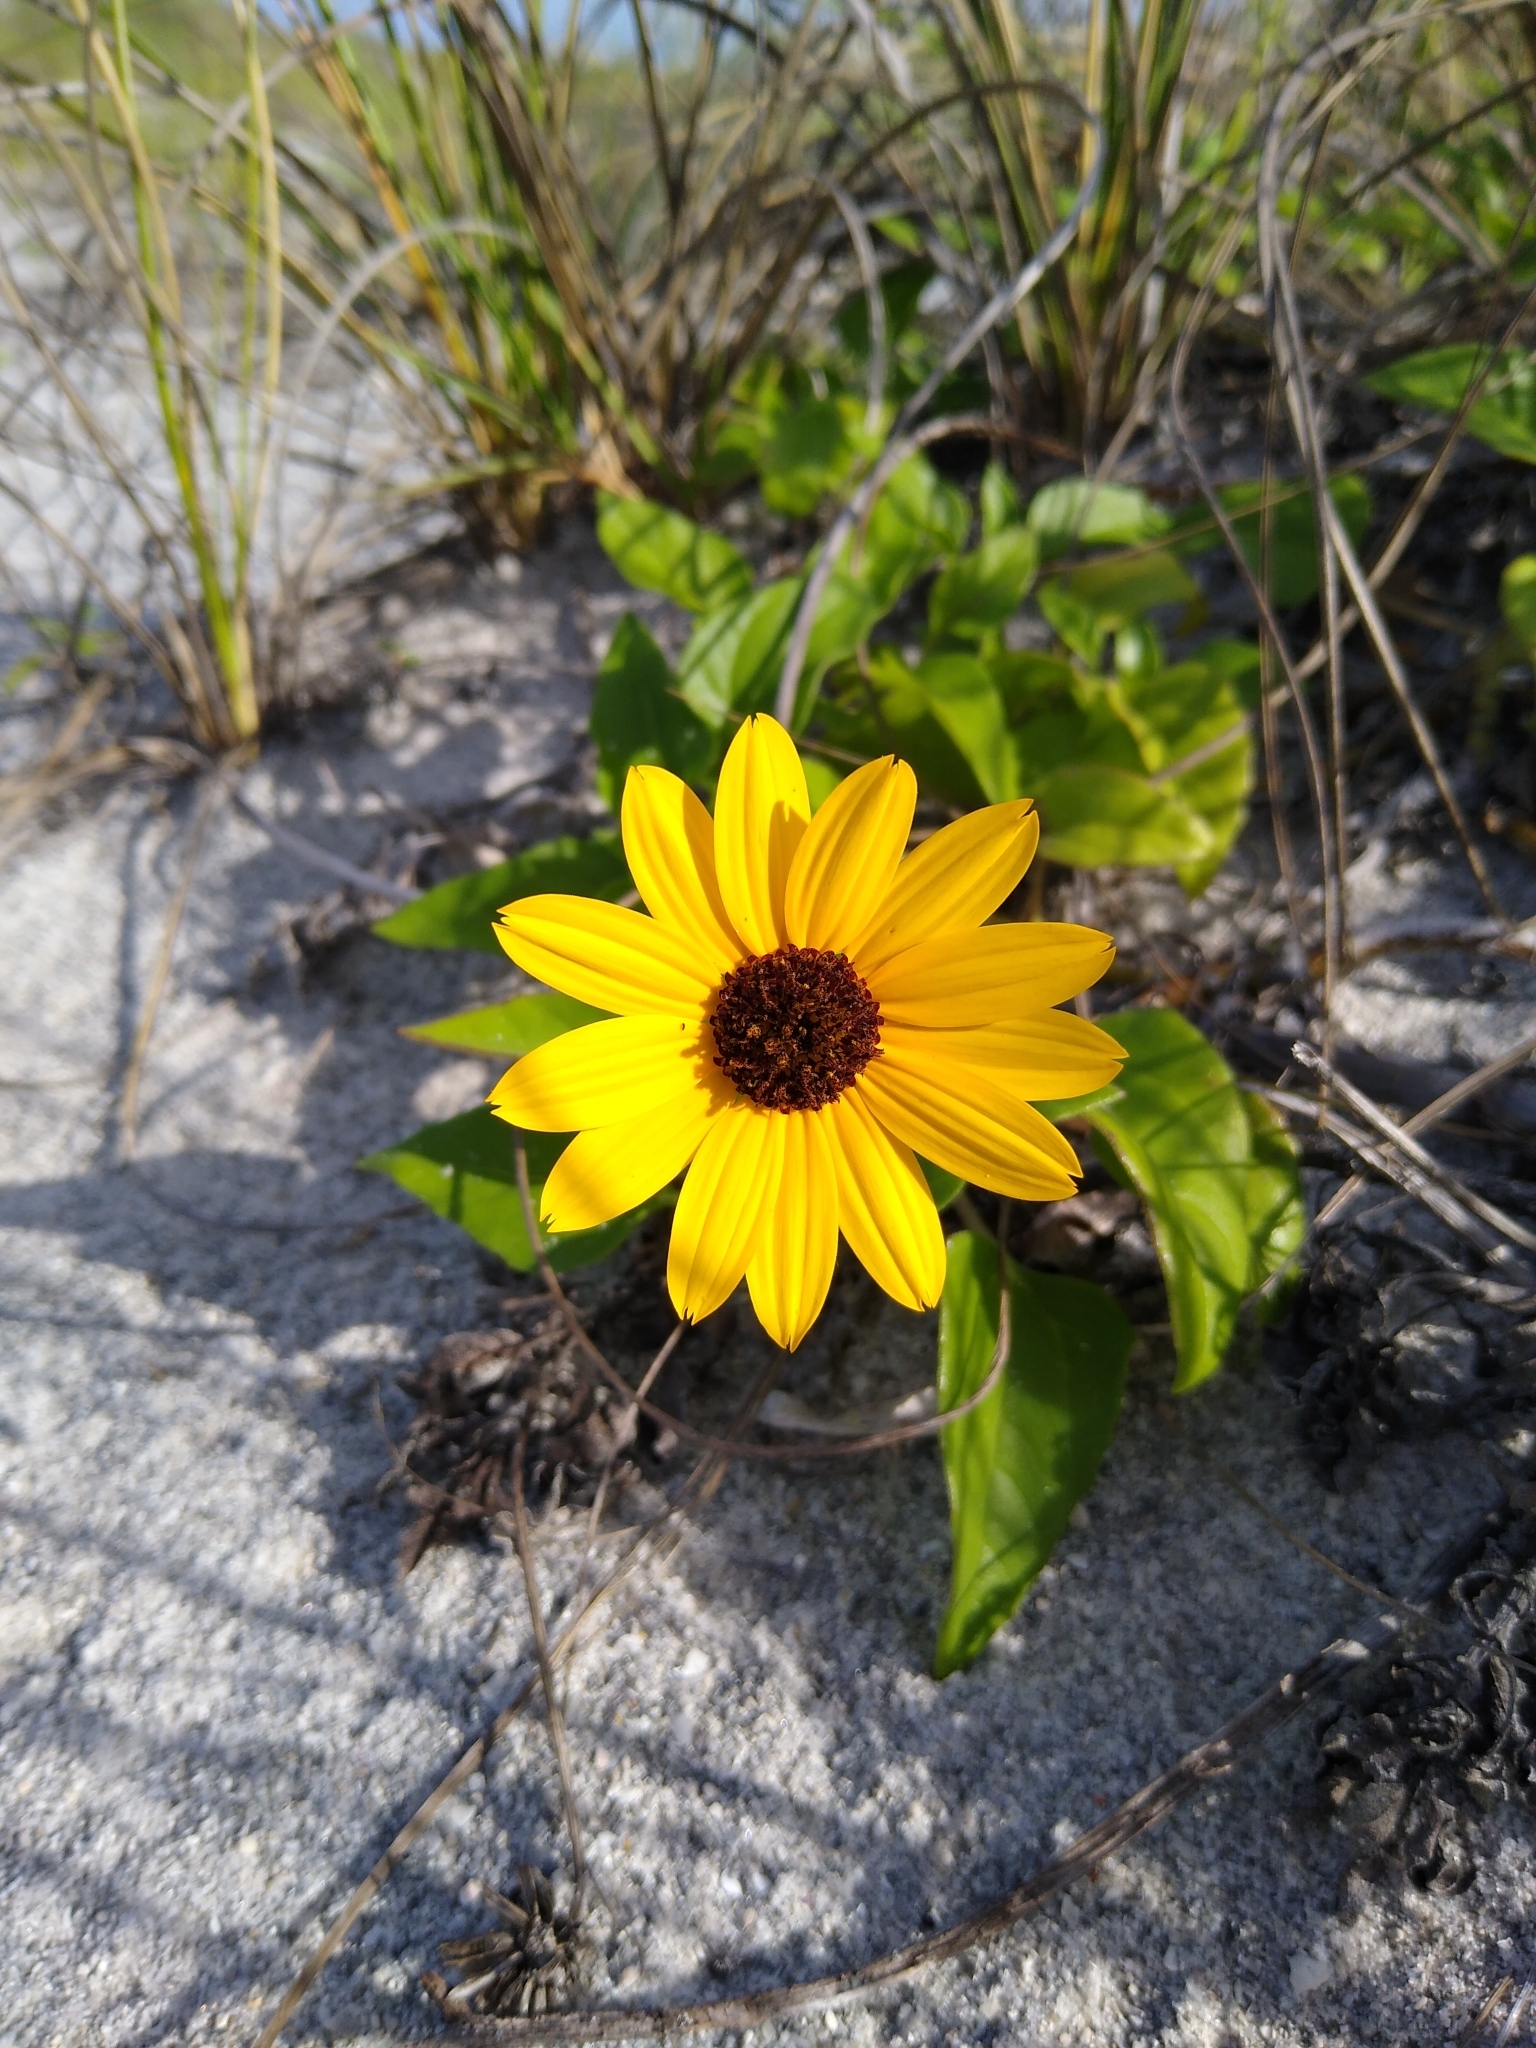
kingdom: Plantae
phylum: Tracheophyta
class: Magnoliopsida
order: Asterales
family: Asteraceae
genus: Helianthus
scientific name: Helianthus debilis
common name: Weak sunflower
